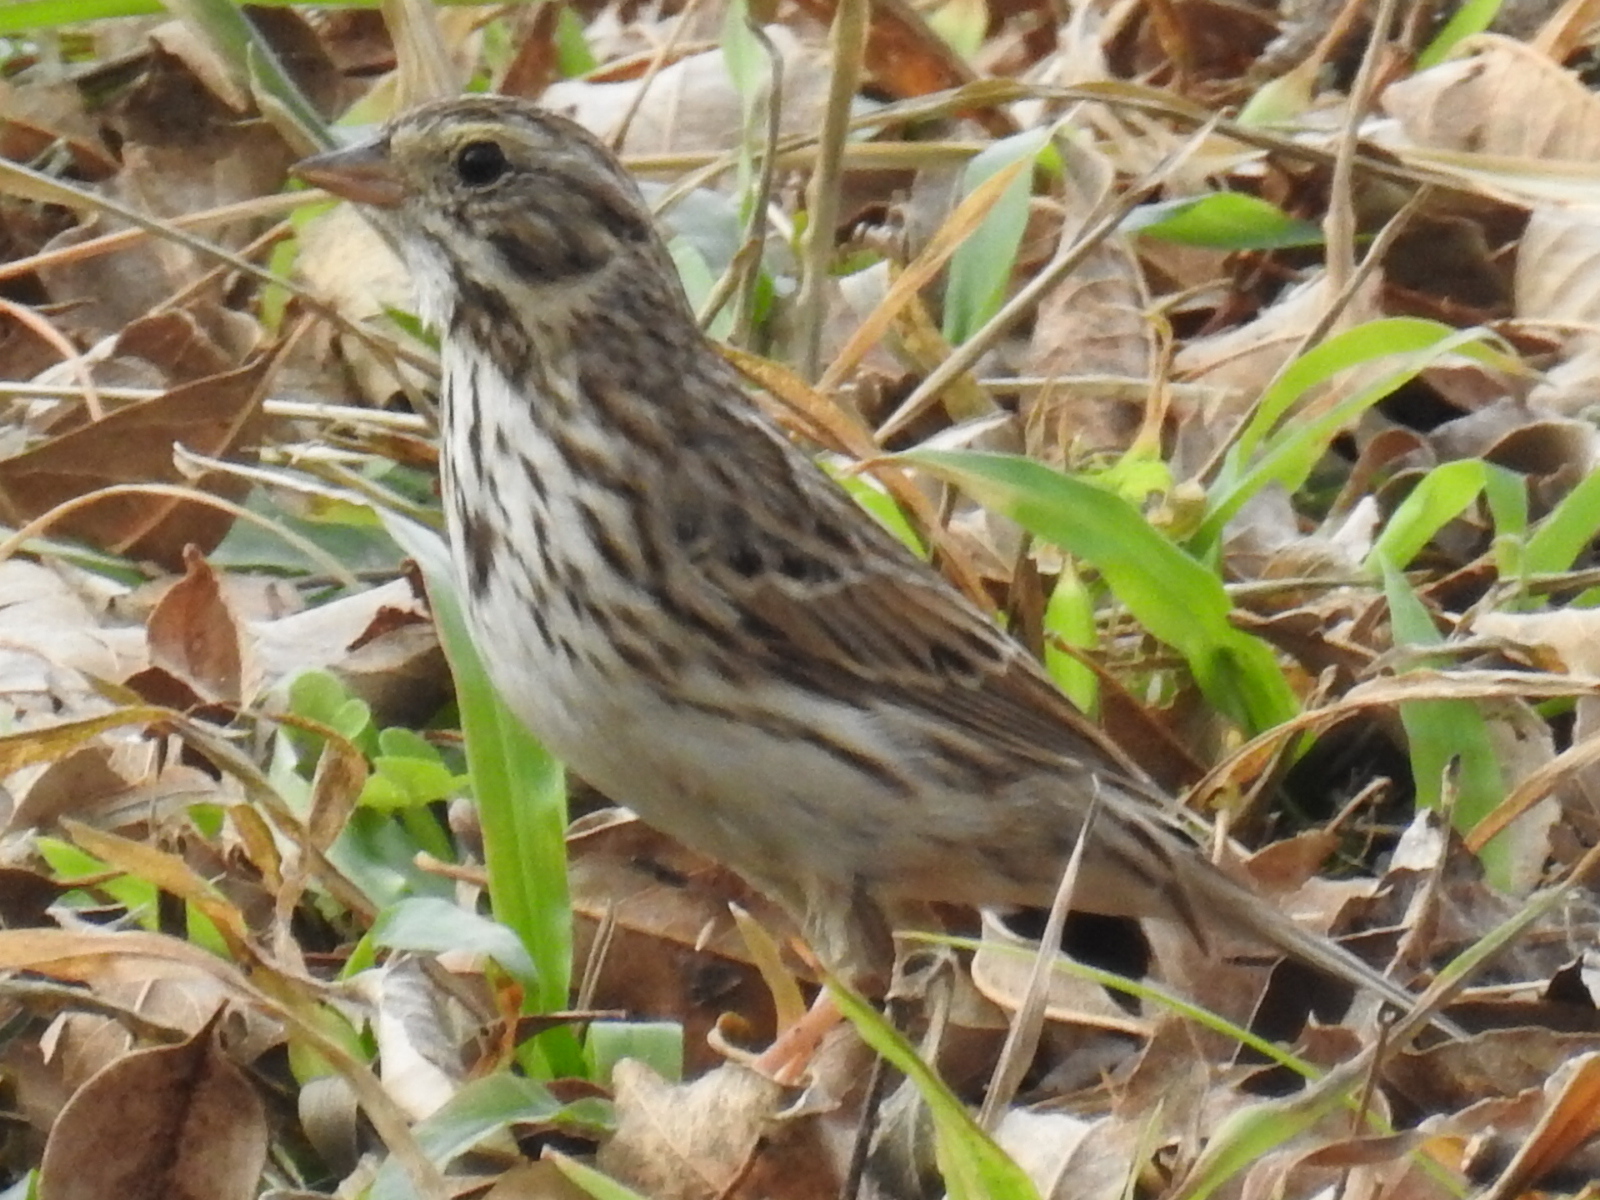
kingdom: Animalia
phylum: Chordata
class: Aves
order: Passeriformes
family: Passerellidae
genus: Passerculus
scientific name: Passerculus sandwichensis
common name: Savannah sparrow
